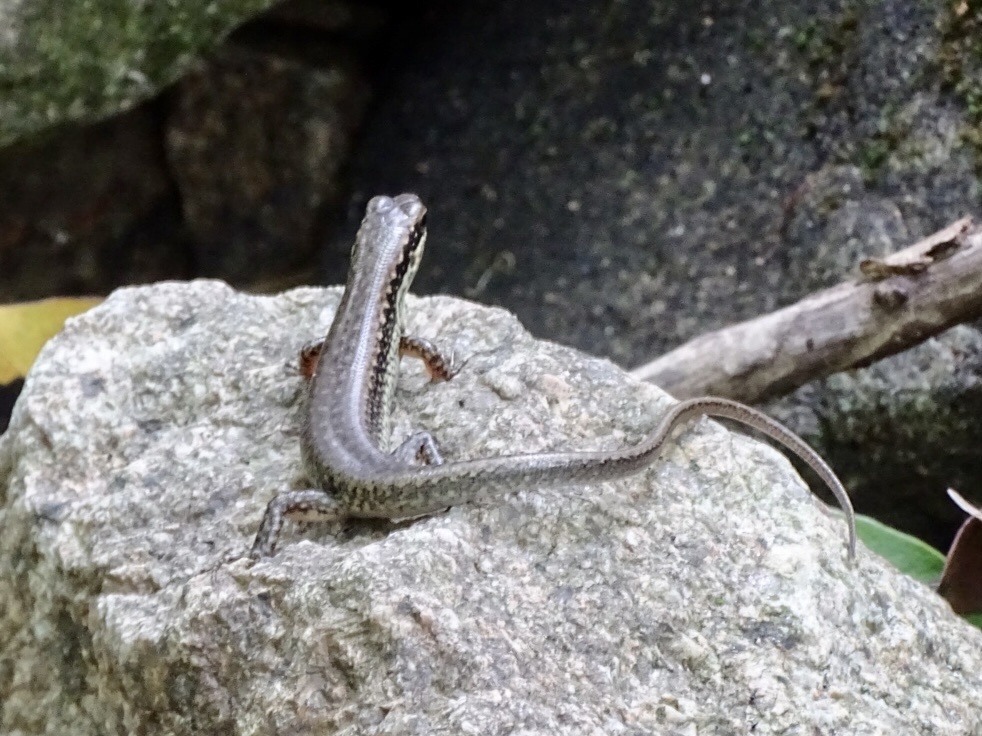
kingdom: Animalia
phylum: Chordata
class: Squamata
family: Scincidae
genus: Sphenomorphus
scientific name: Sphenomorphus incognitus
